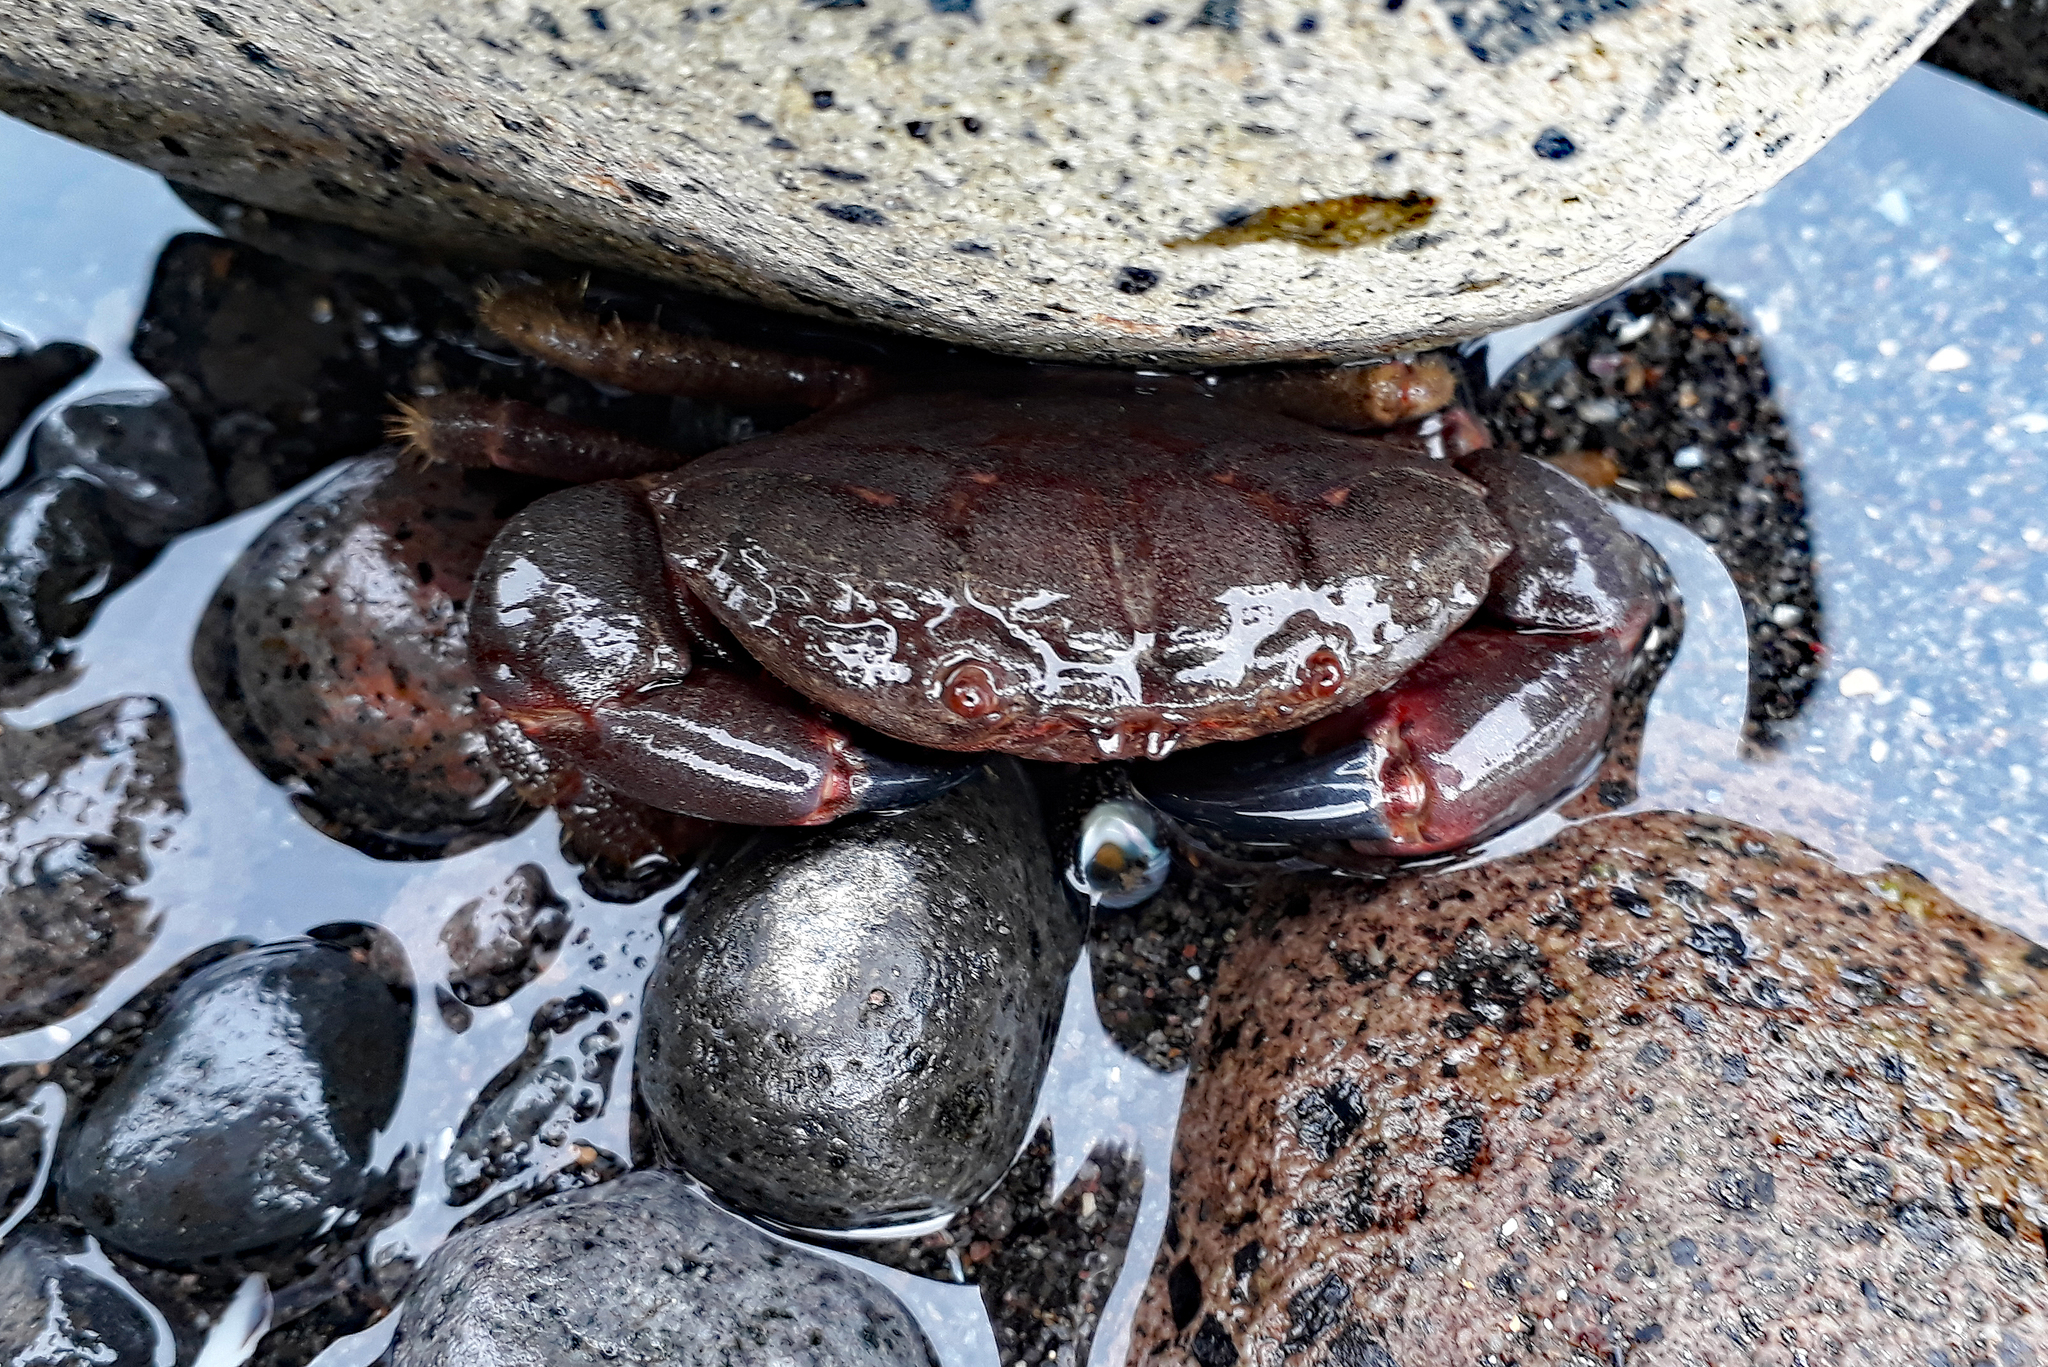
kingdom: Animalia
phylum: Arthropoda
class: Malacostraca
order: Decapoda
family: Oziidae
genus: Ozius
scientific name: Ozius deplanatus
